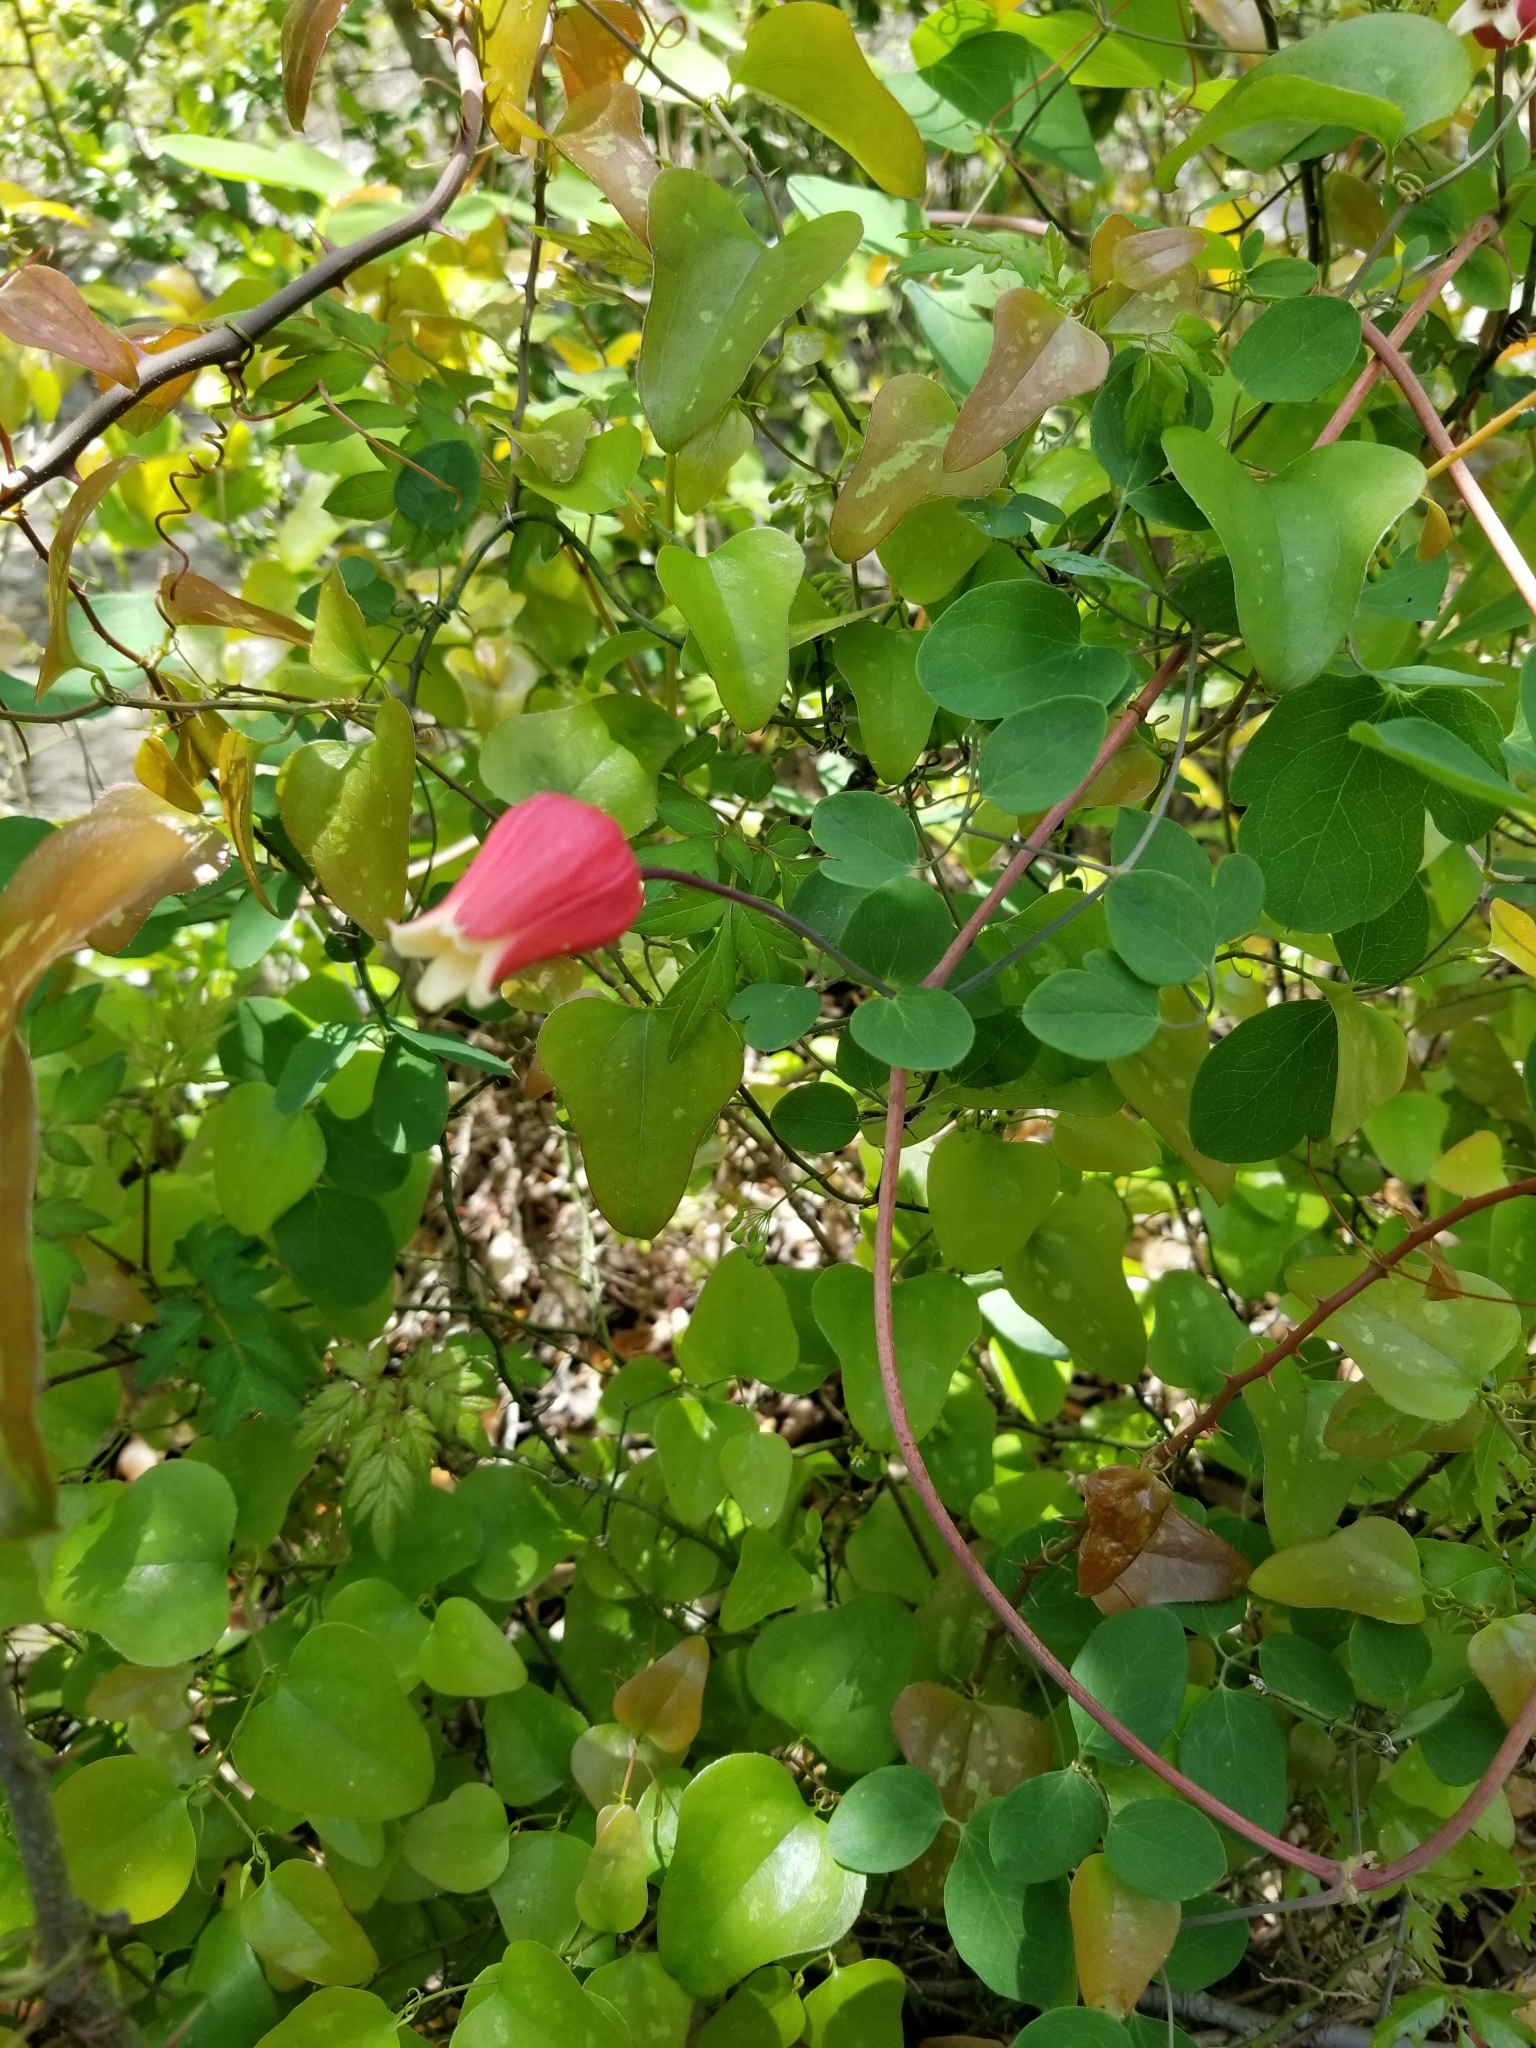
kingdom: Plantae
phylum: Tracheophyta
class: Magnoliopsida
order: Ranunculales
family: Ranunculaceae
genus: Clematis
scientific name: Clematis texensis
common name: Crimson clematis
